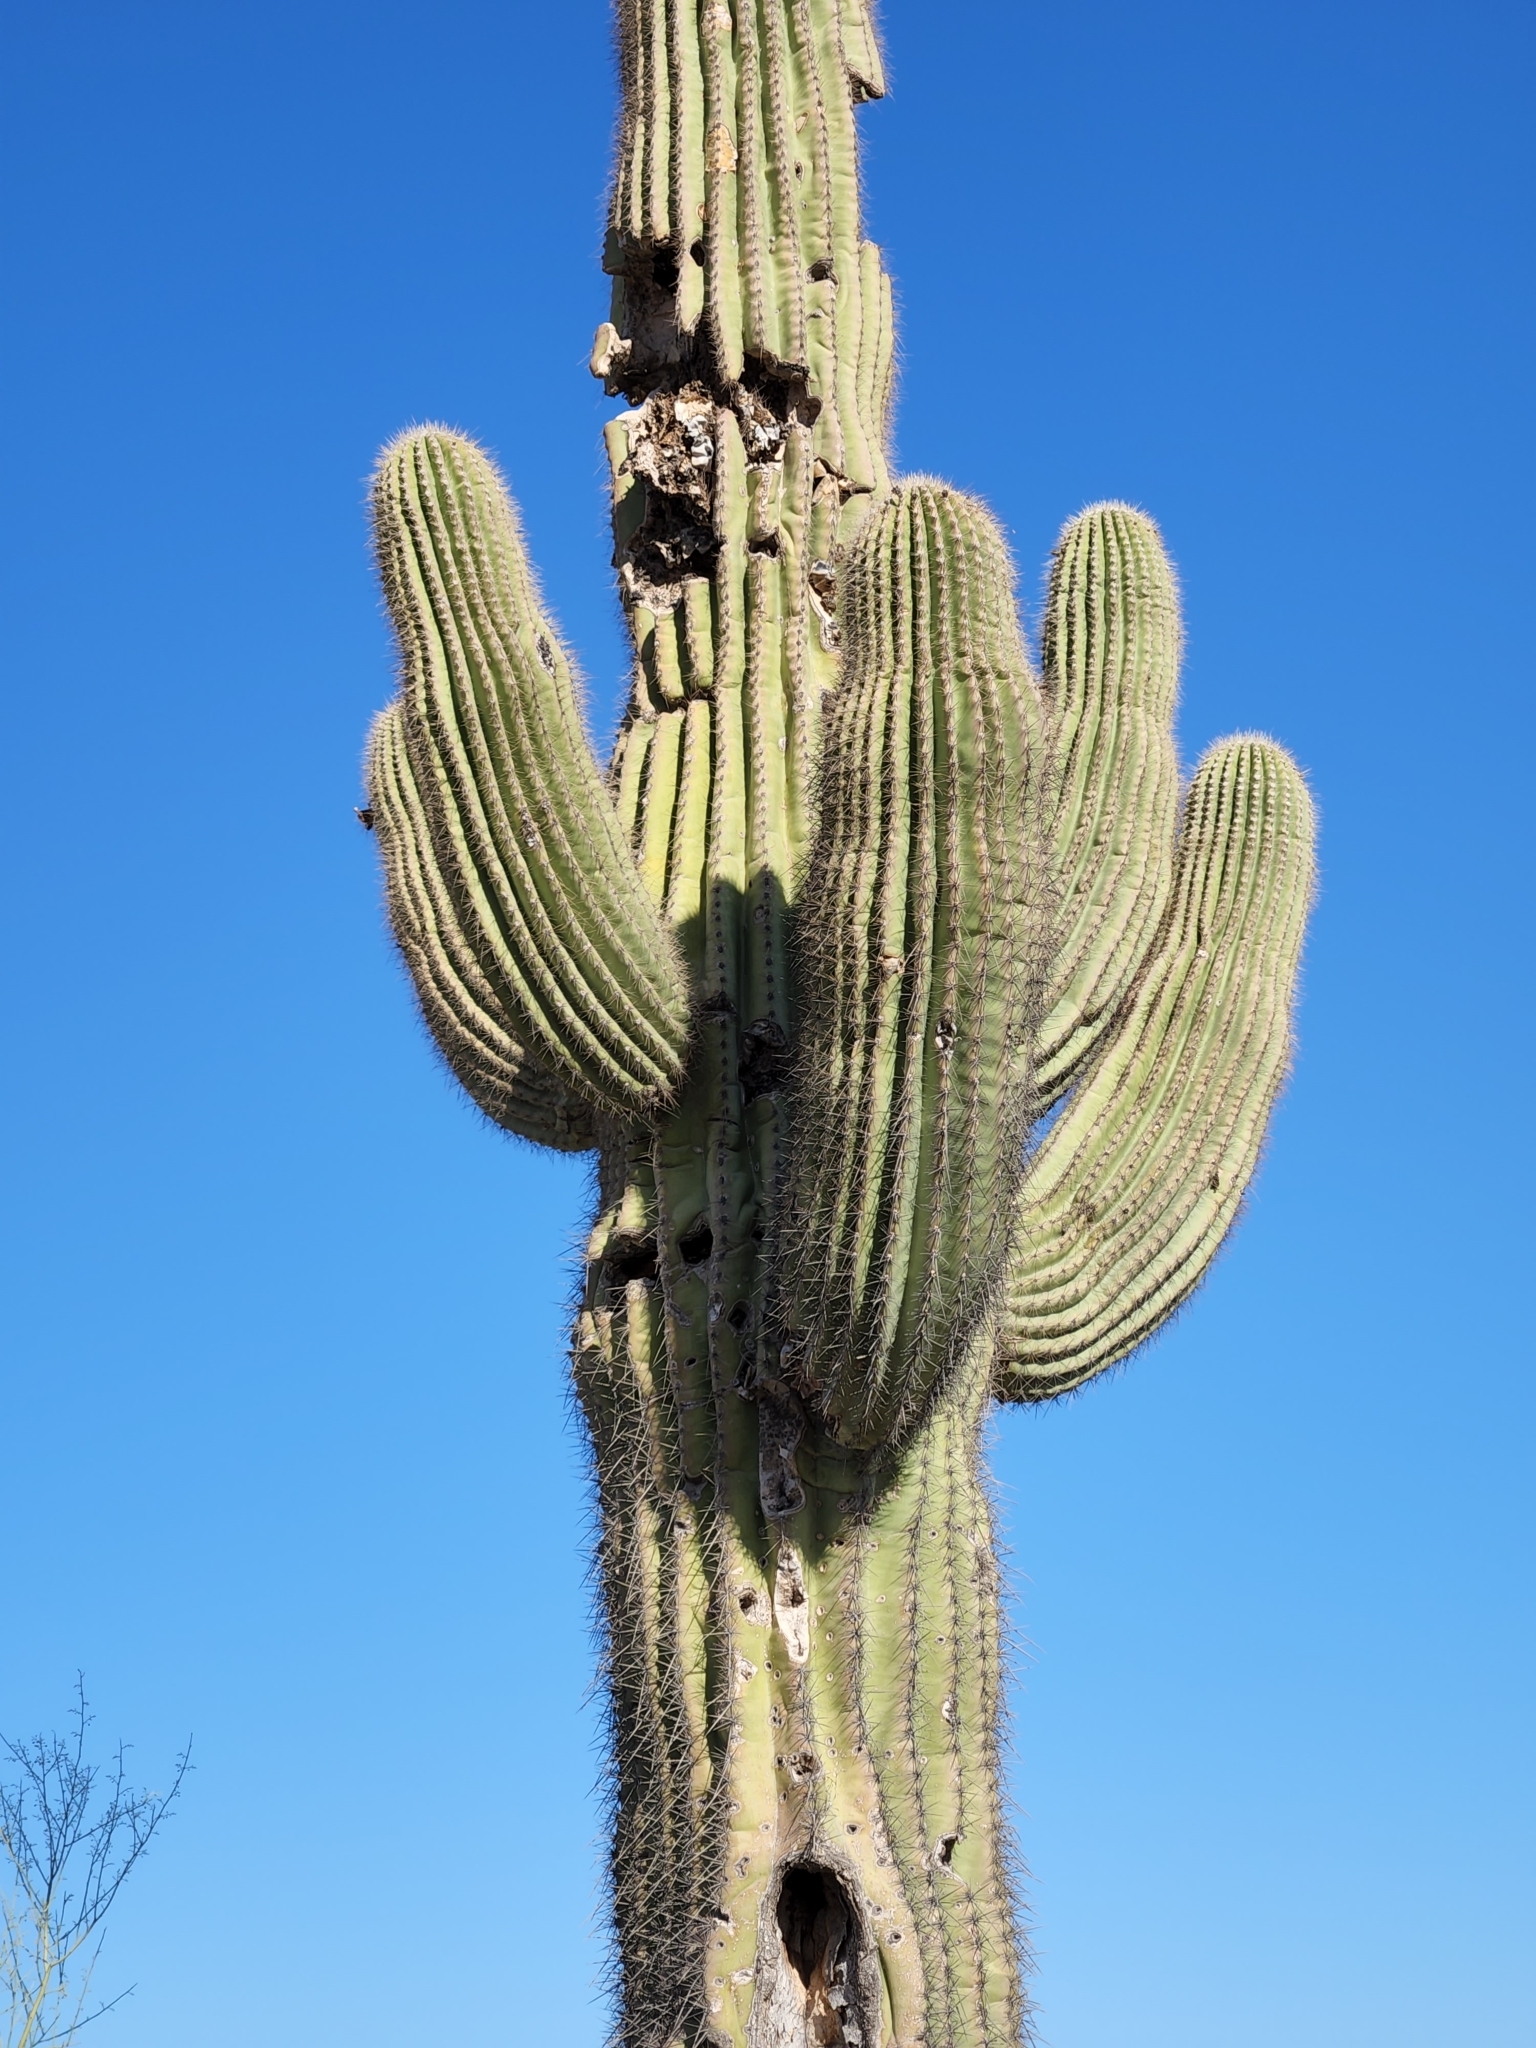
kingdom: Plantae
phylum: Tracheophyta
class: Magnoliopsida
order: Caryophyllales
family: Cactaceae
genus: Carnegiea
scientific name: Carnegiea gigantea
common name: Saguaro
